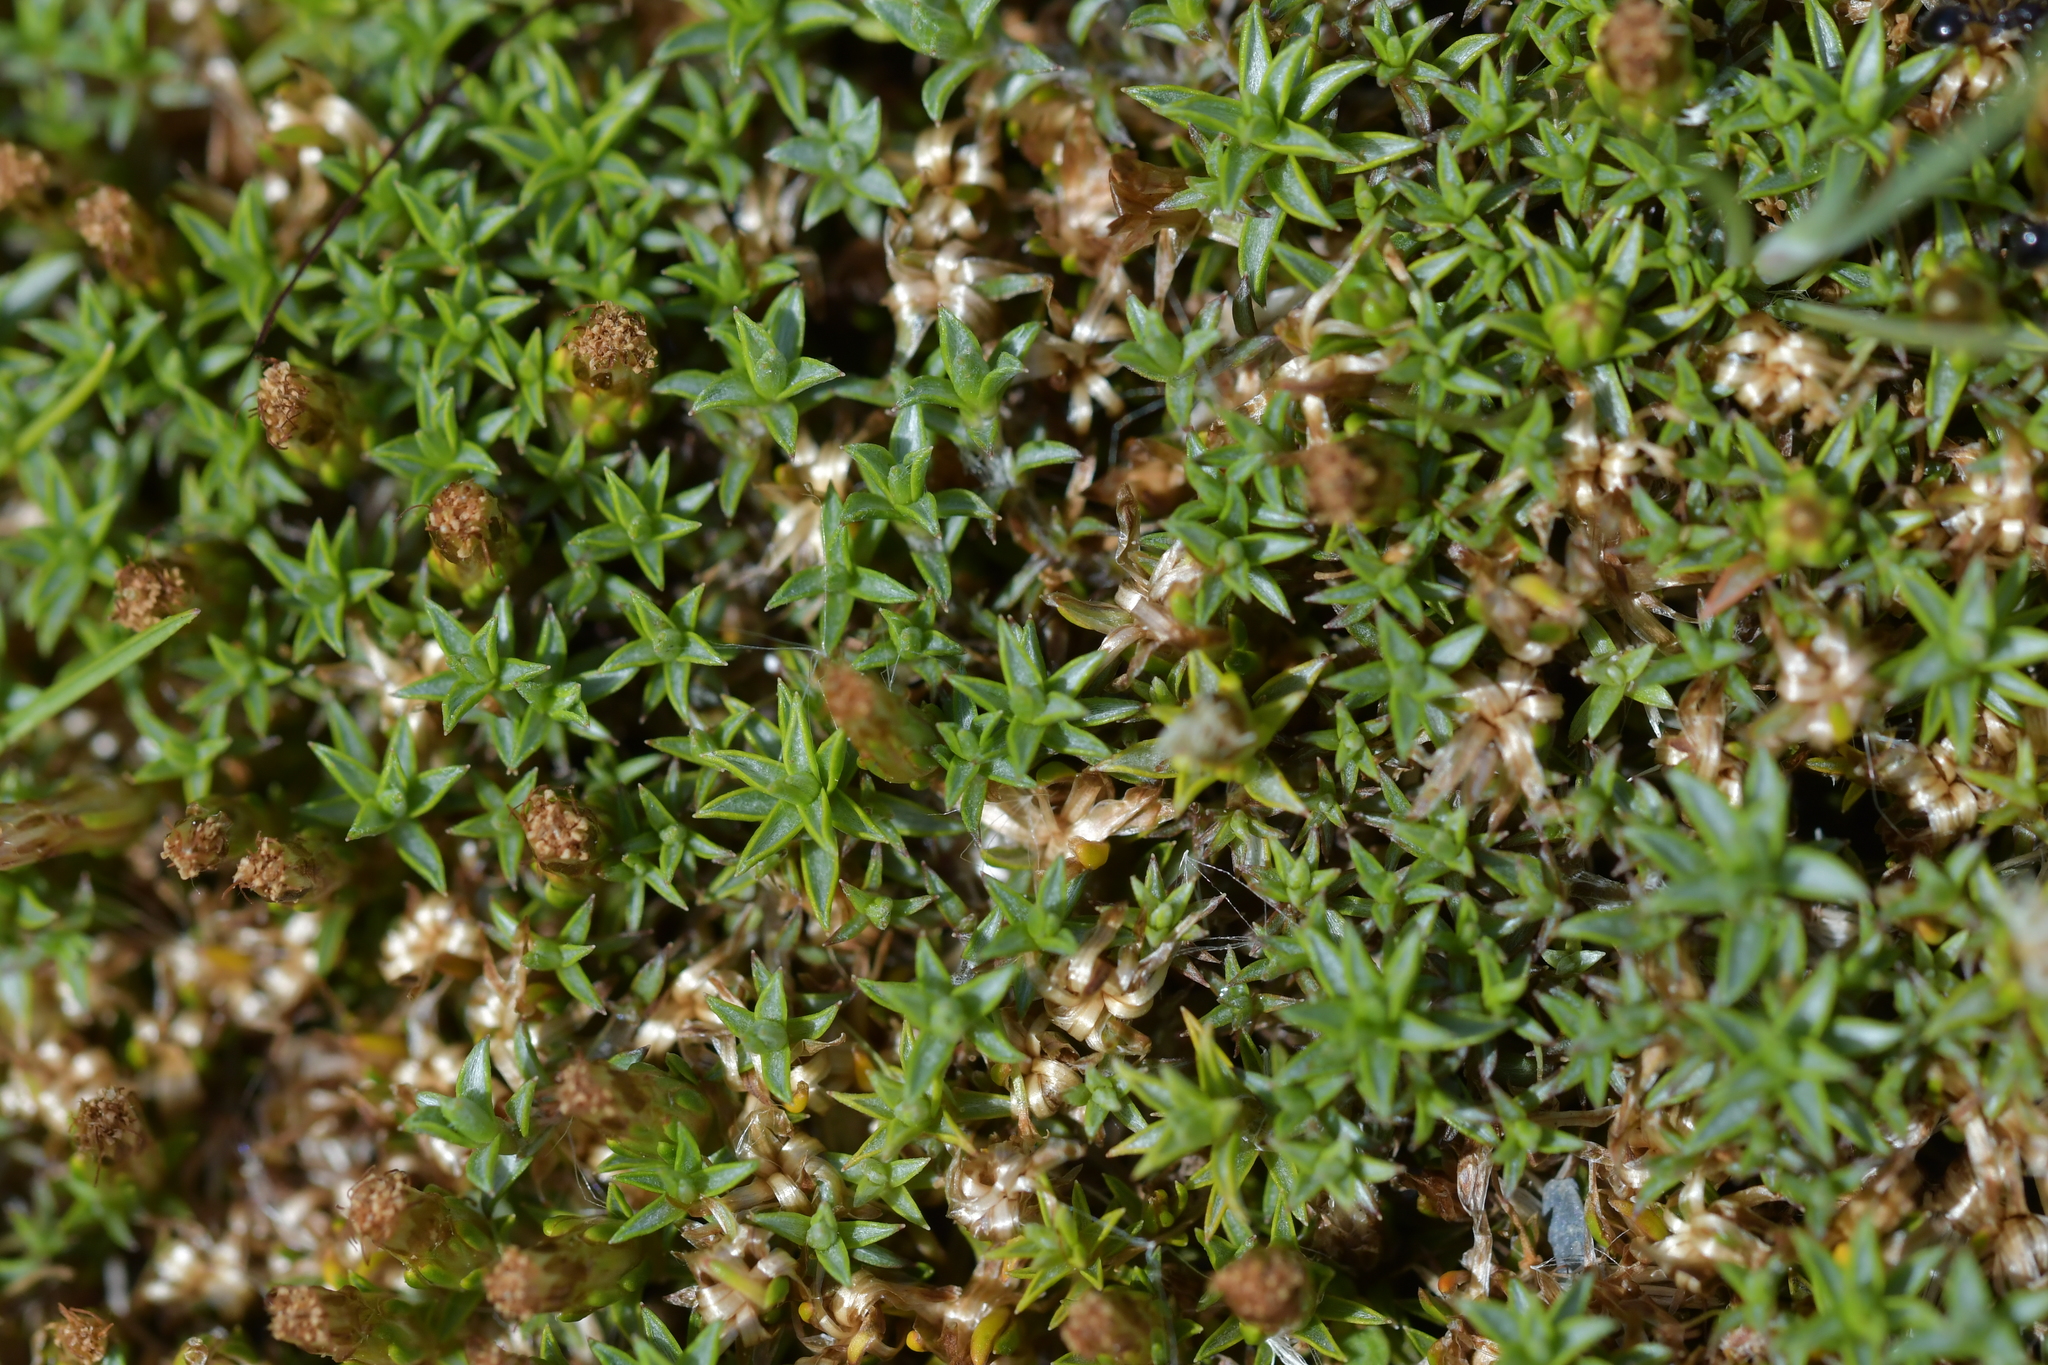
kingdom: Plantae
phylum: Tracheophyta
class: Magnoliopsida
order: Asterales
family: Asteraceae
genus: Raoulia
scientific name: Raoulia tenuicaulis
